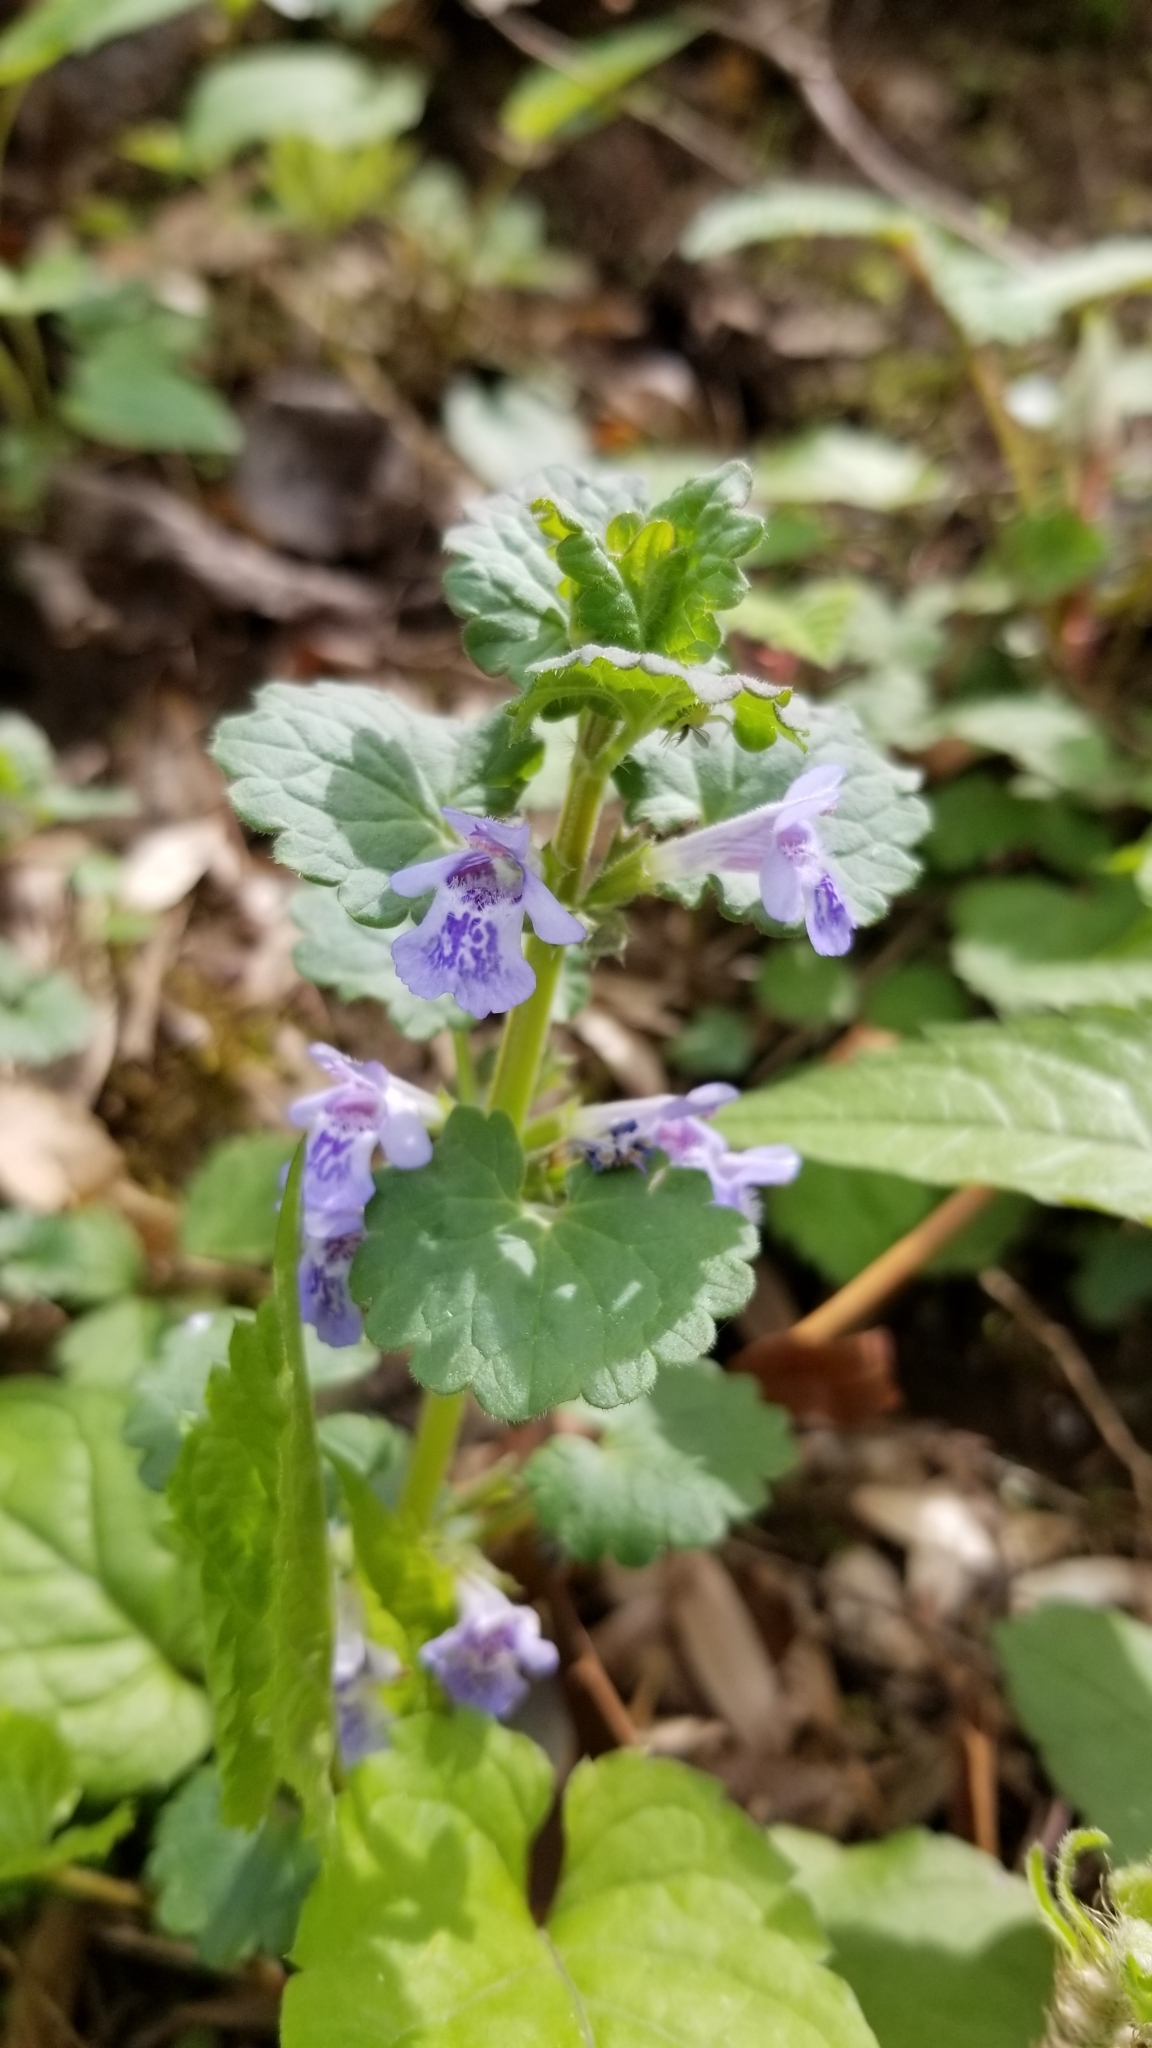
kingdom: Plantae
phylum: Tracheophyta
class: Magnoliopsida
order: Lamiales
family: Lamiaceae
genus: Glechoma
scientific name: Glechoma hederacea
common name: Ground ivy
